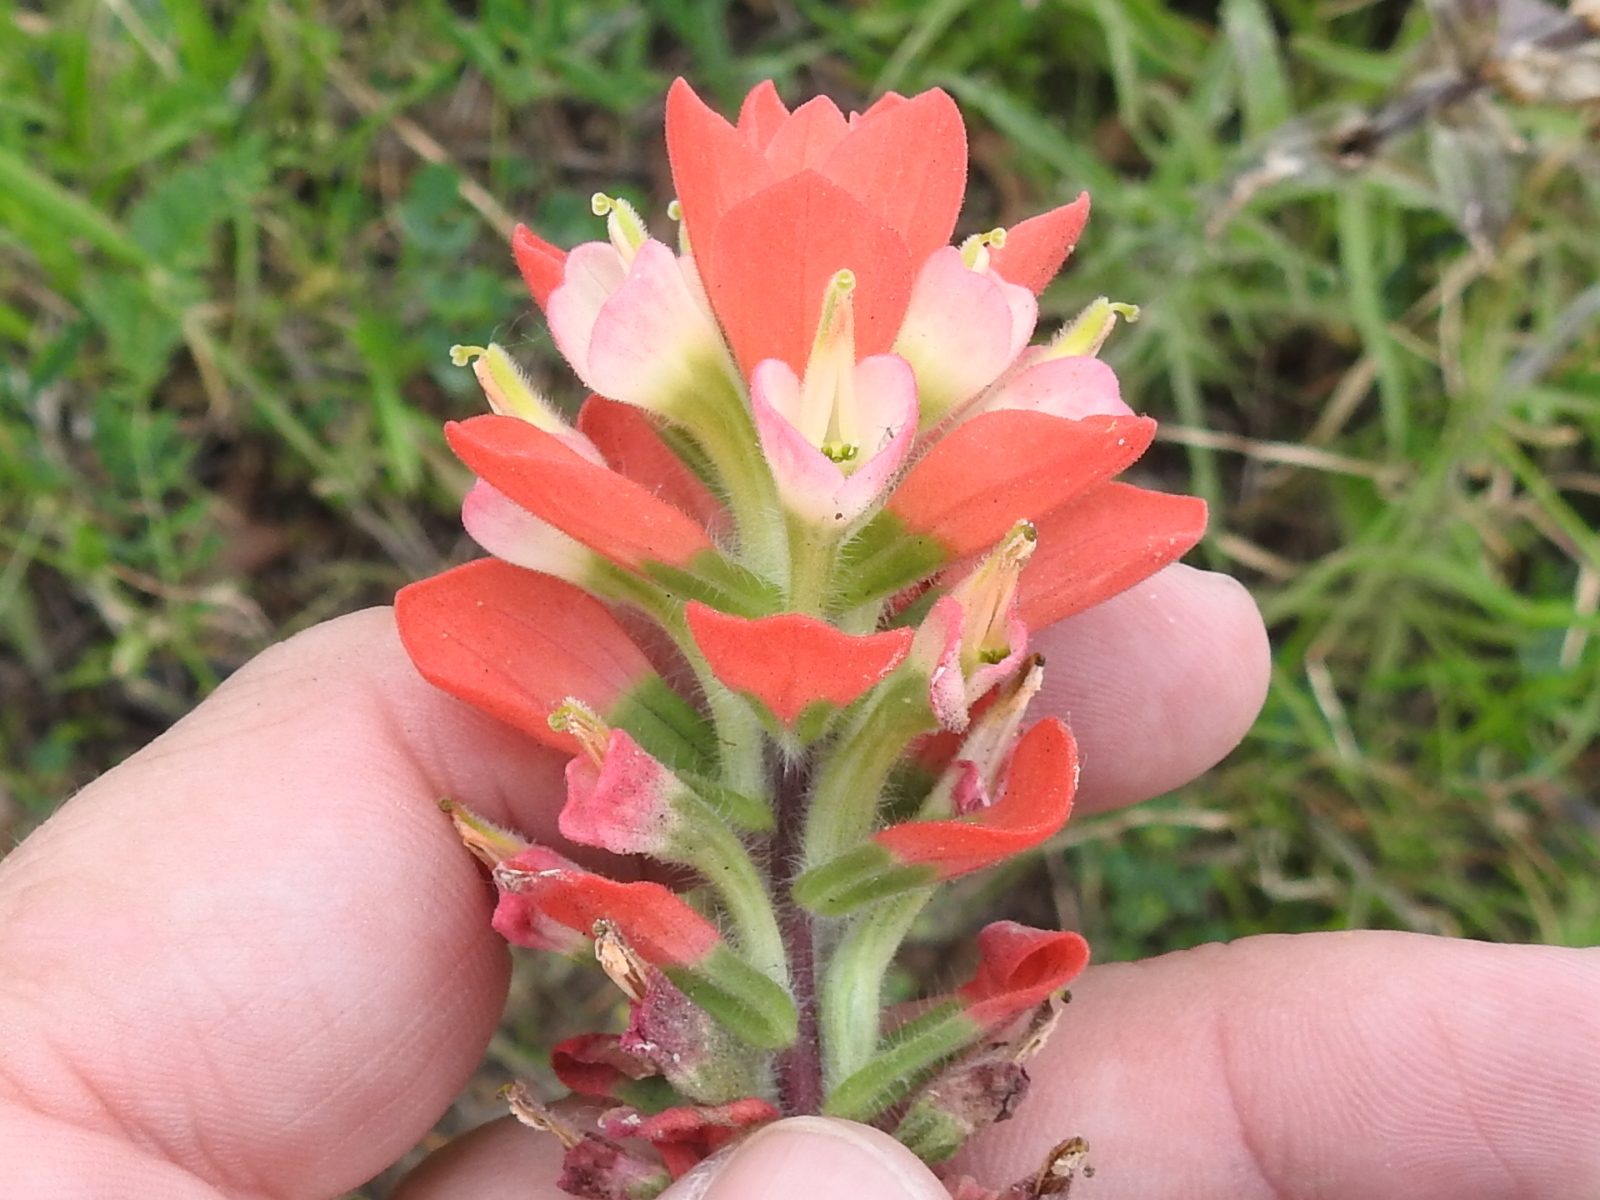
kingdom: Plantae
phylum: Tracheophyta
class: Magnoliopsida
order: Lamiales
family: Orobanchaceae
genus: Castilleja
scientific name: Castilleja indivisa
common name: Texas paintbrush
